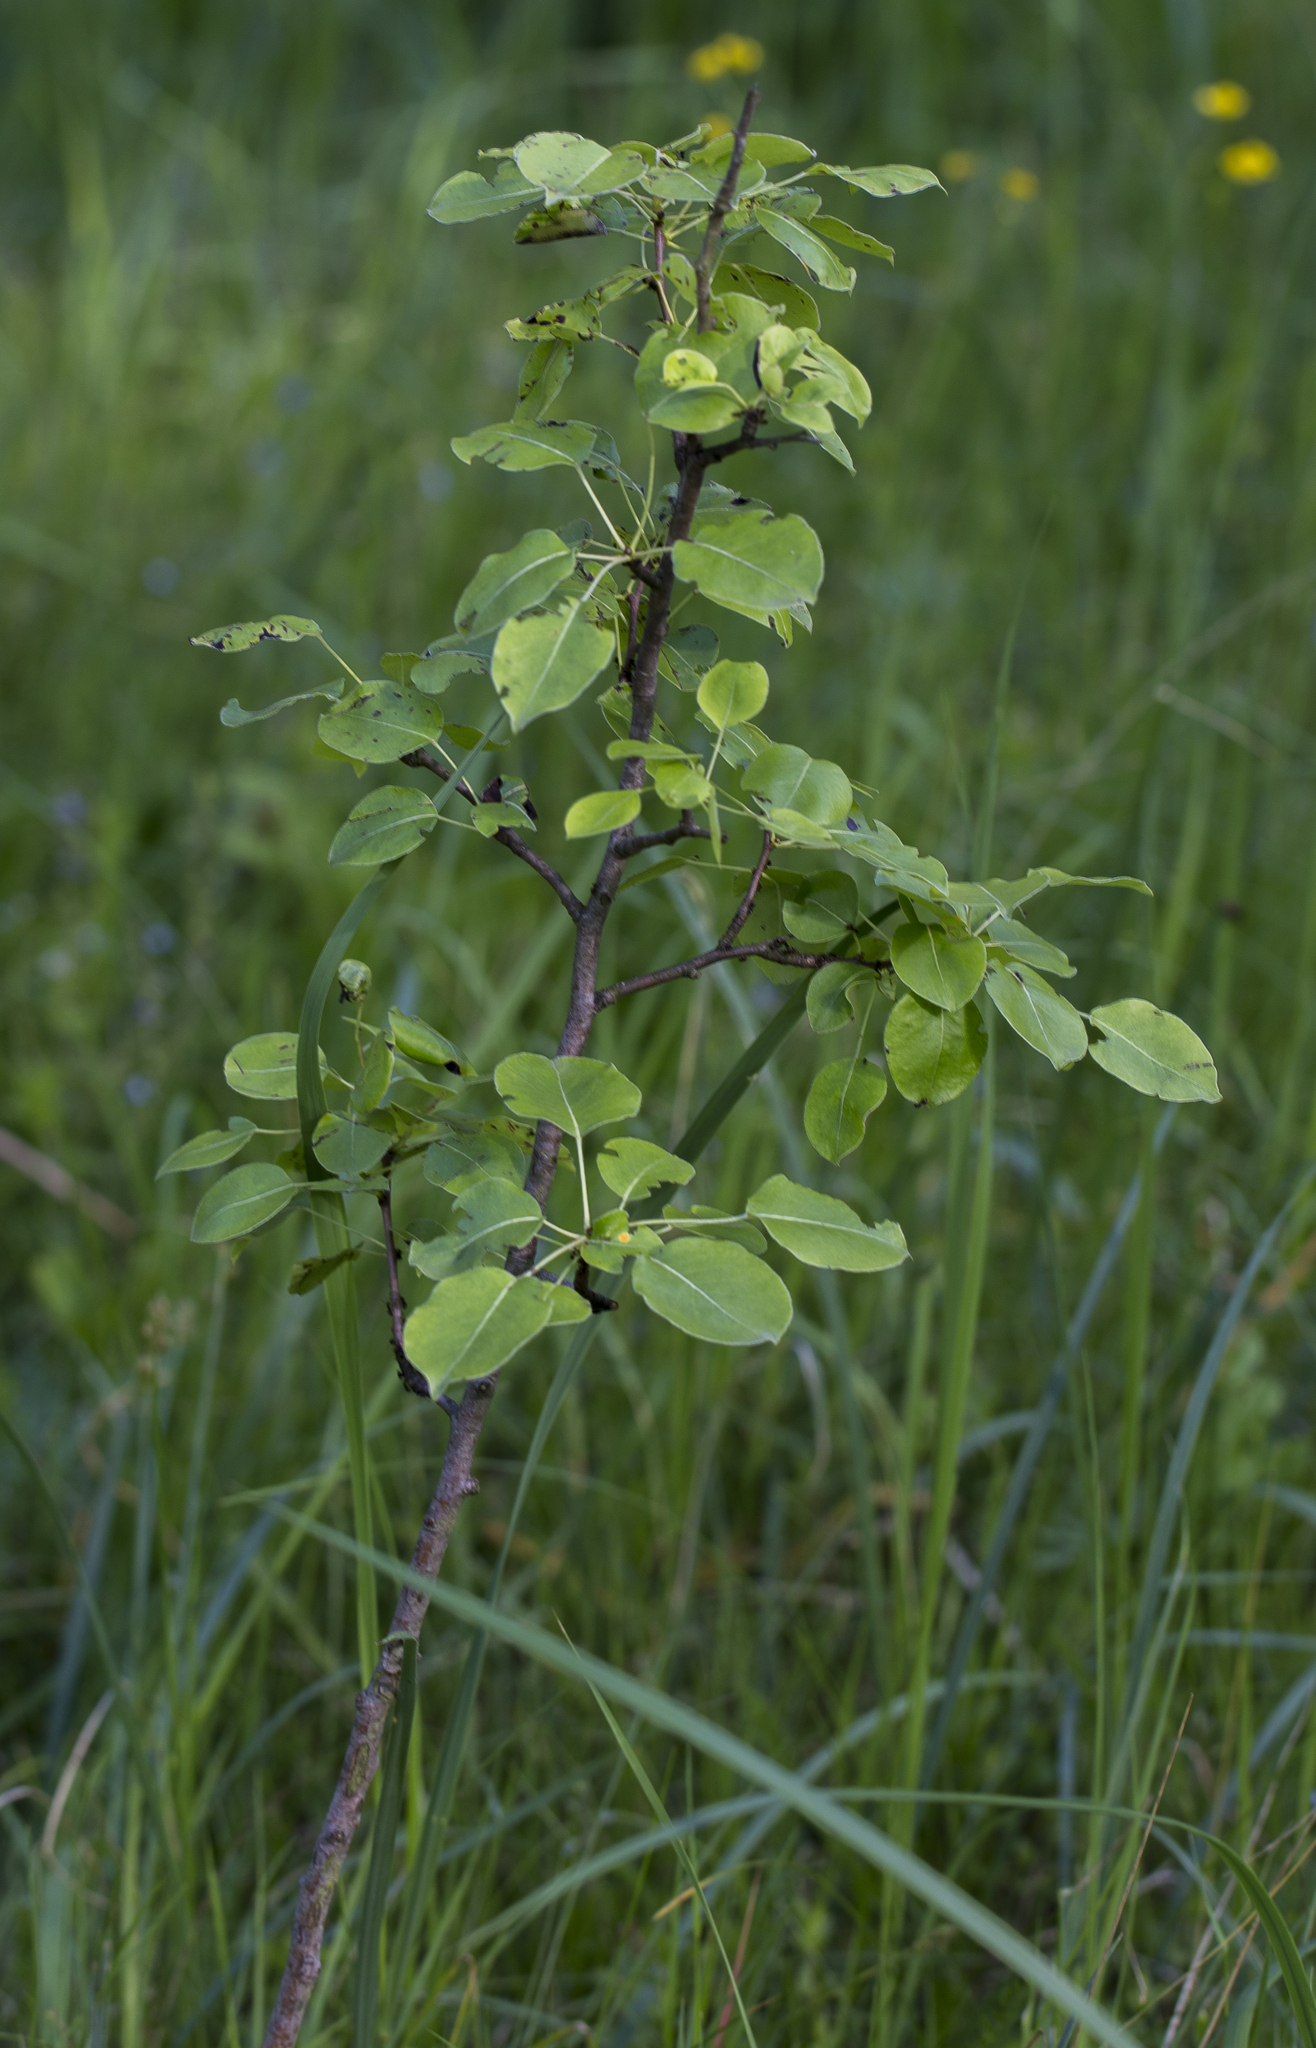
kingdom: Plantae
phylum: Tracheophyta
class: Magnoliopsida
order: Rosales
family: Rosaceae
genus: Pyrus
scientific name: Pyrus communis
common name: Pear
